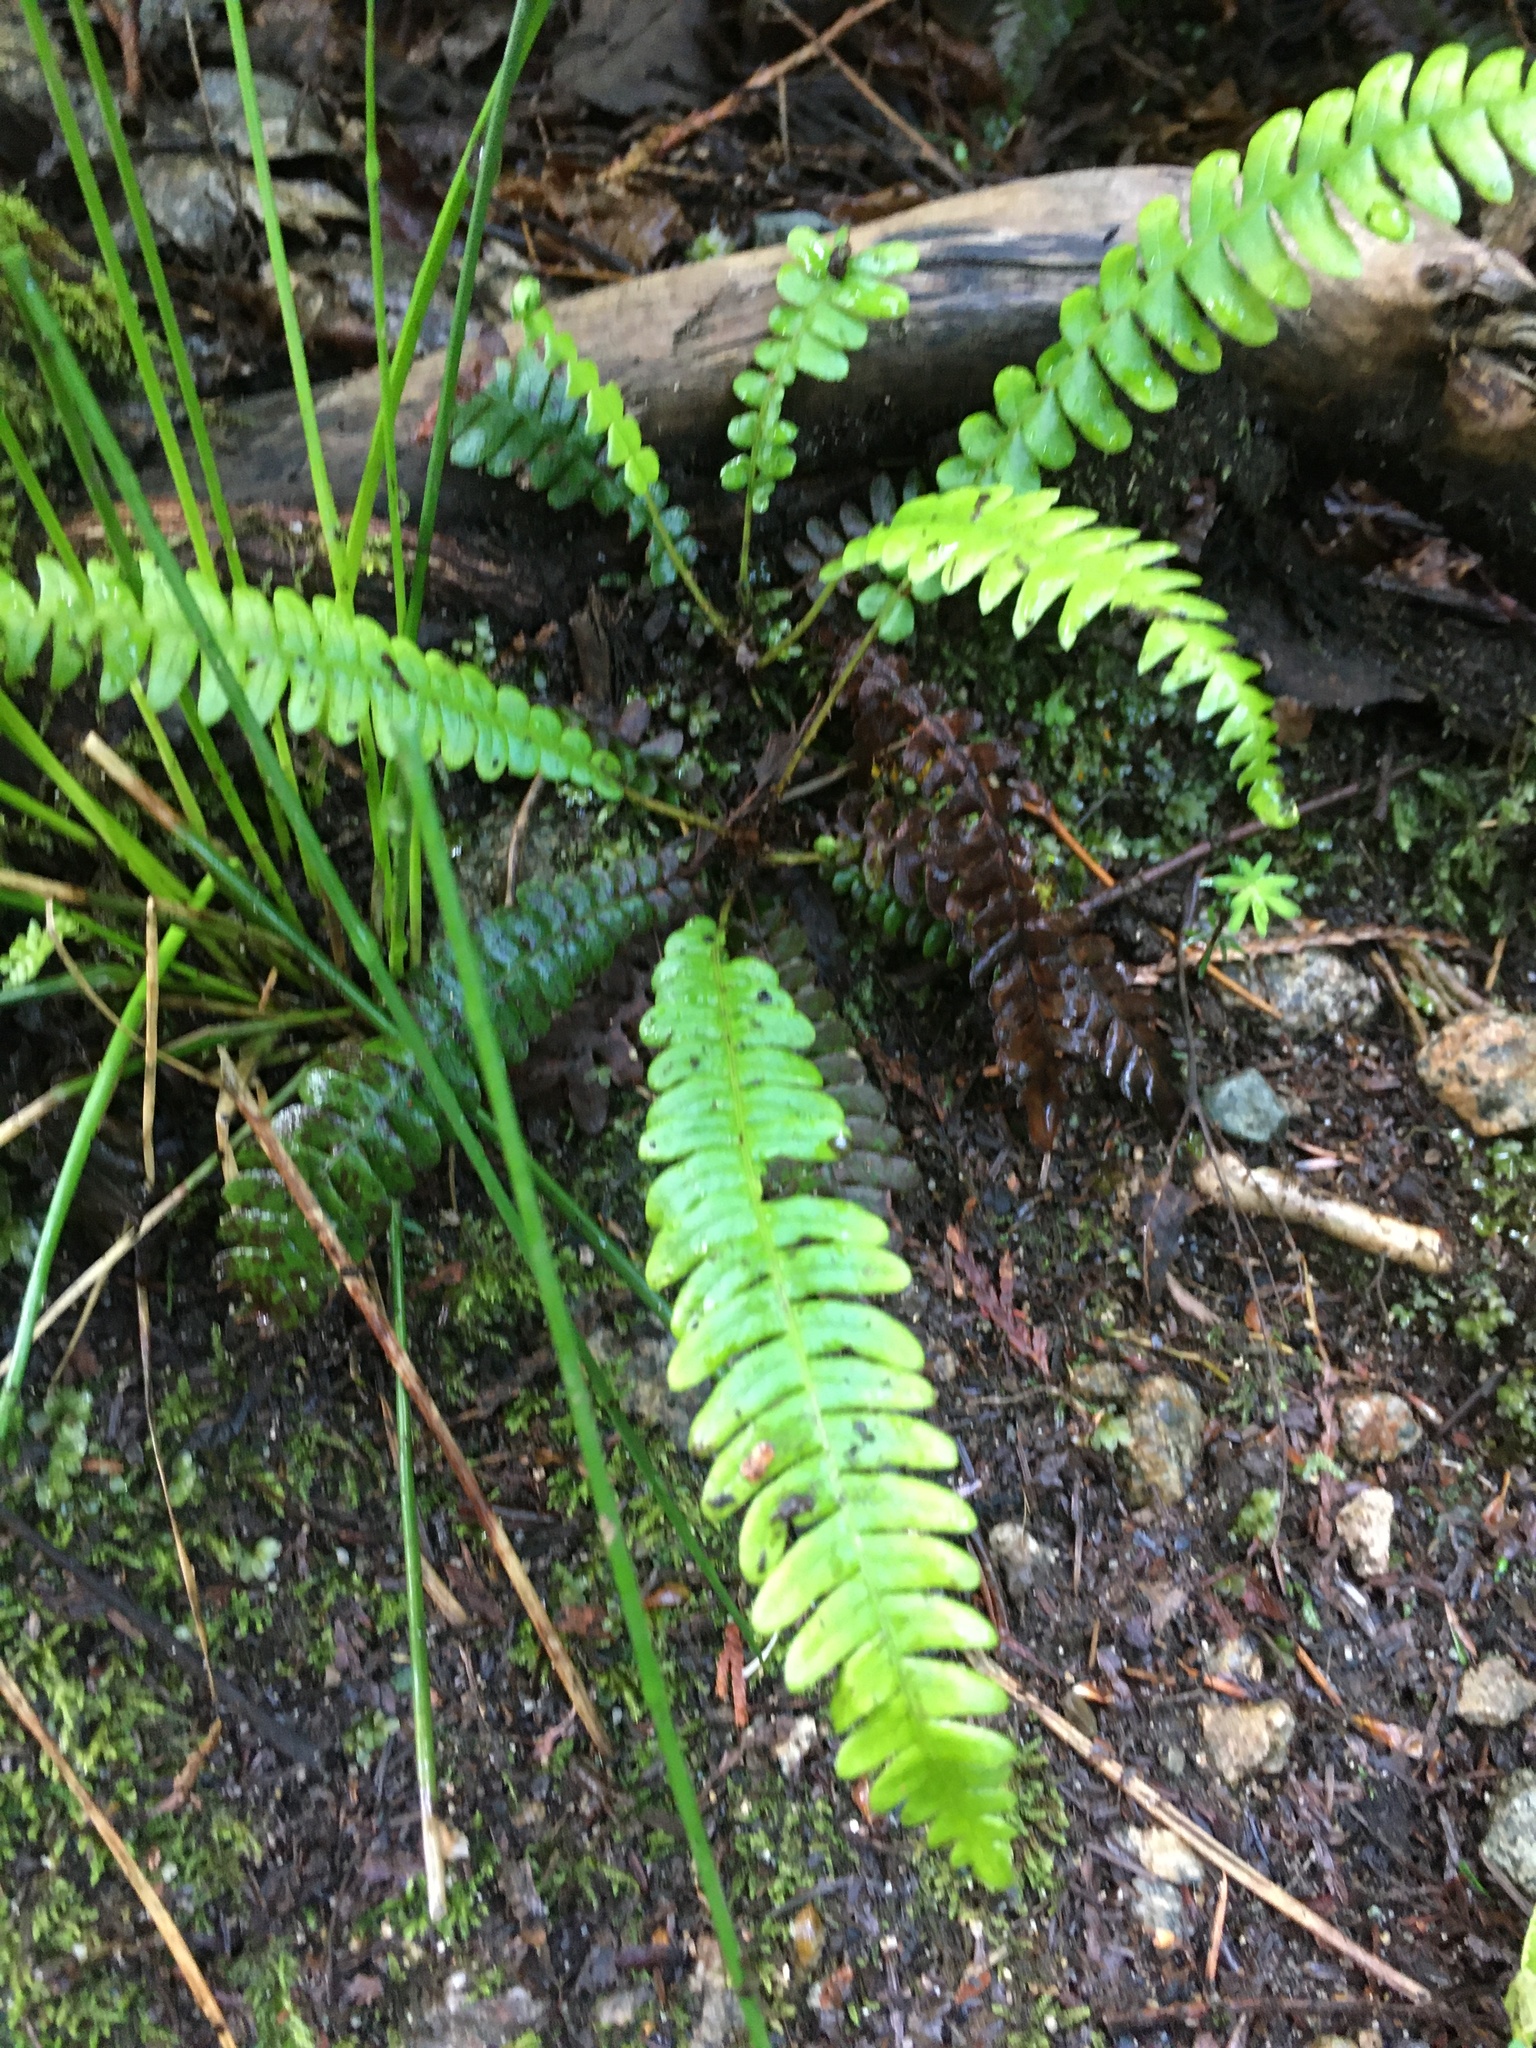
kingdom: Plantae
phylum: Tracheophyta
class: Polypodiopsida
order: Polypodiales
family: Blechnaceae
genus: Struthiopteris
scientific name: Struthiopteris spicant
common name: Deer fern
